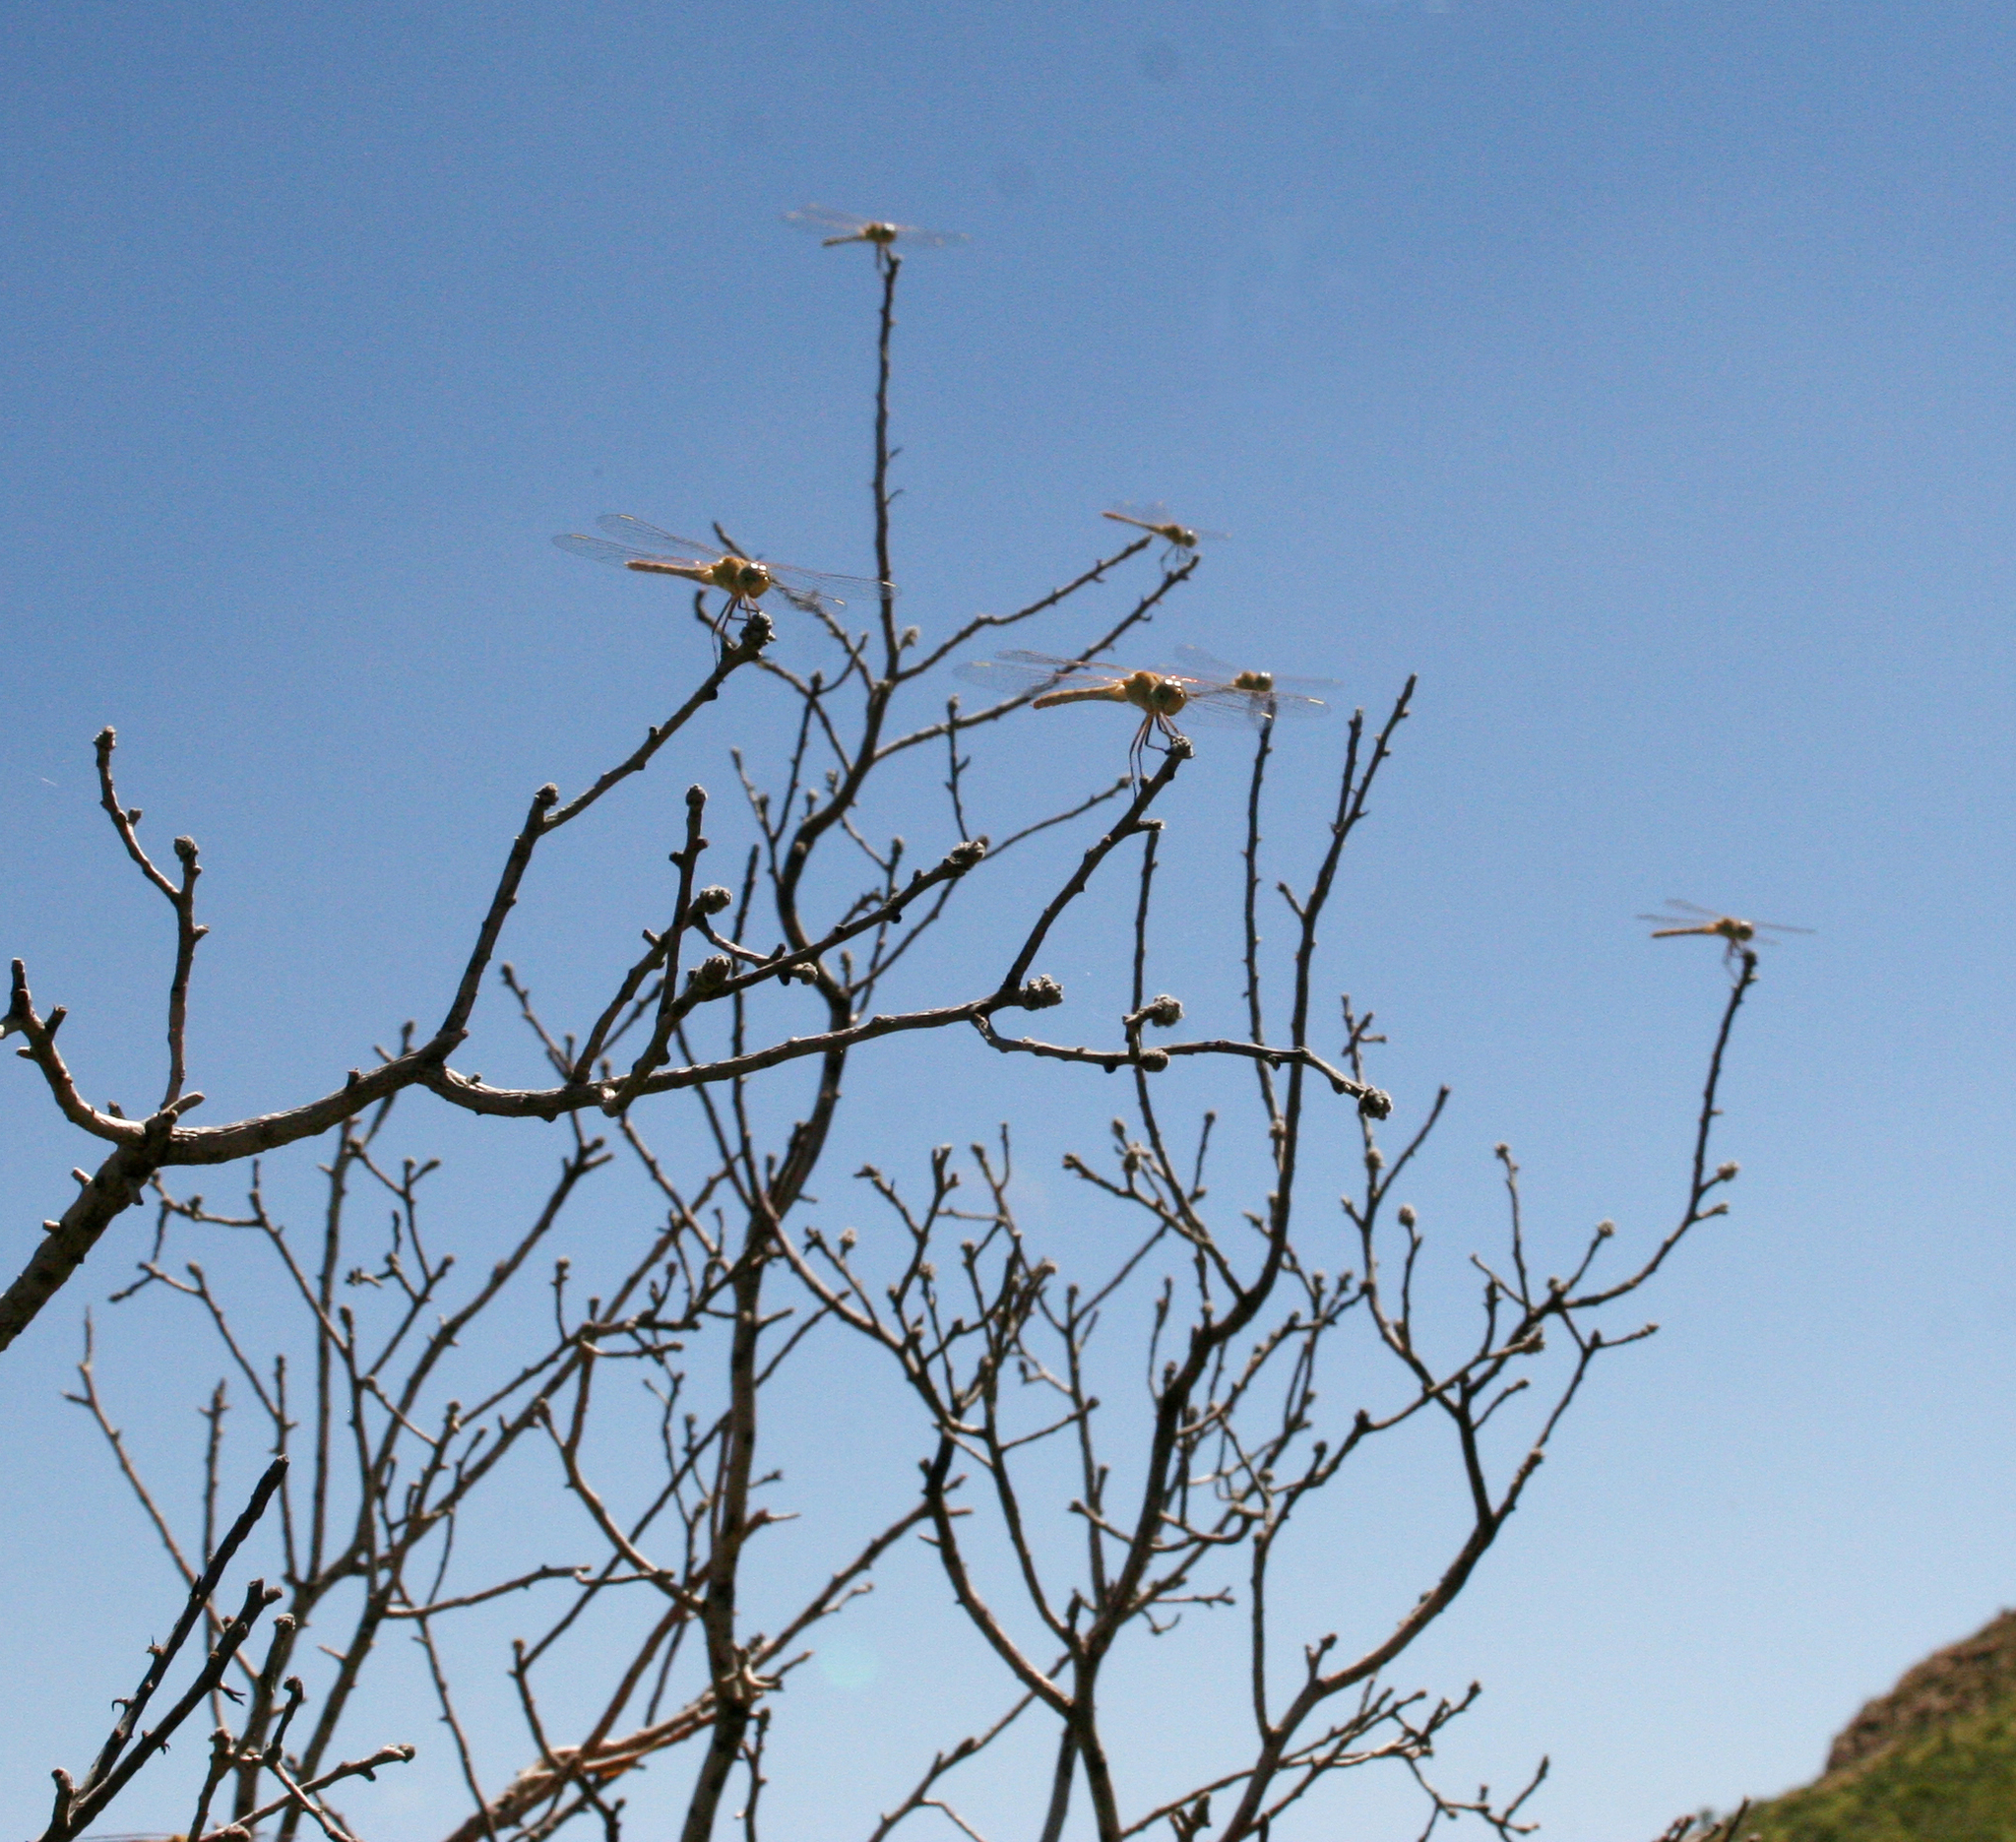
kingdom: Animalia
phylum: Arthropoda
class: Insecta
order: Odonata
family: Libellulidae
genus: Sympetrum
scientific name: Sympetrum arenicolor
